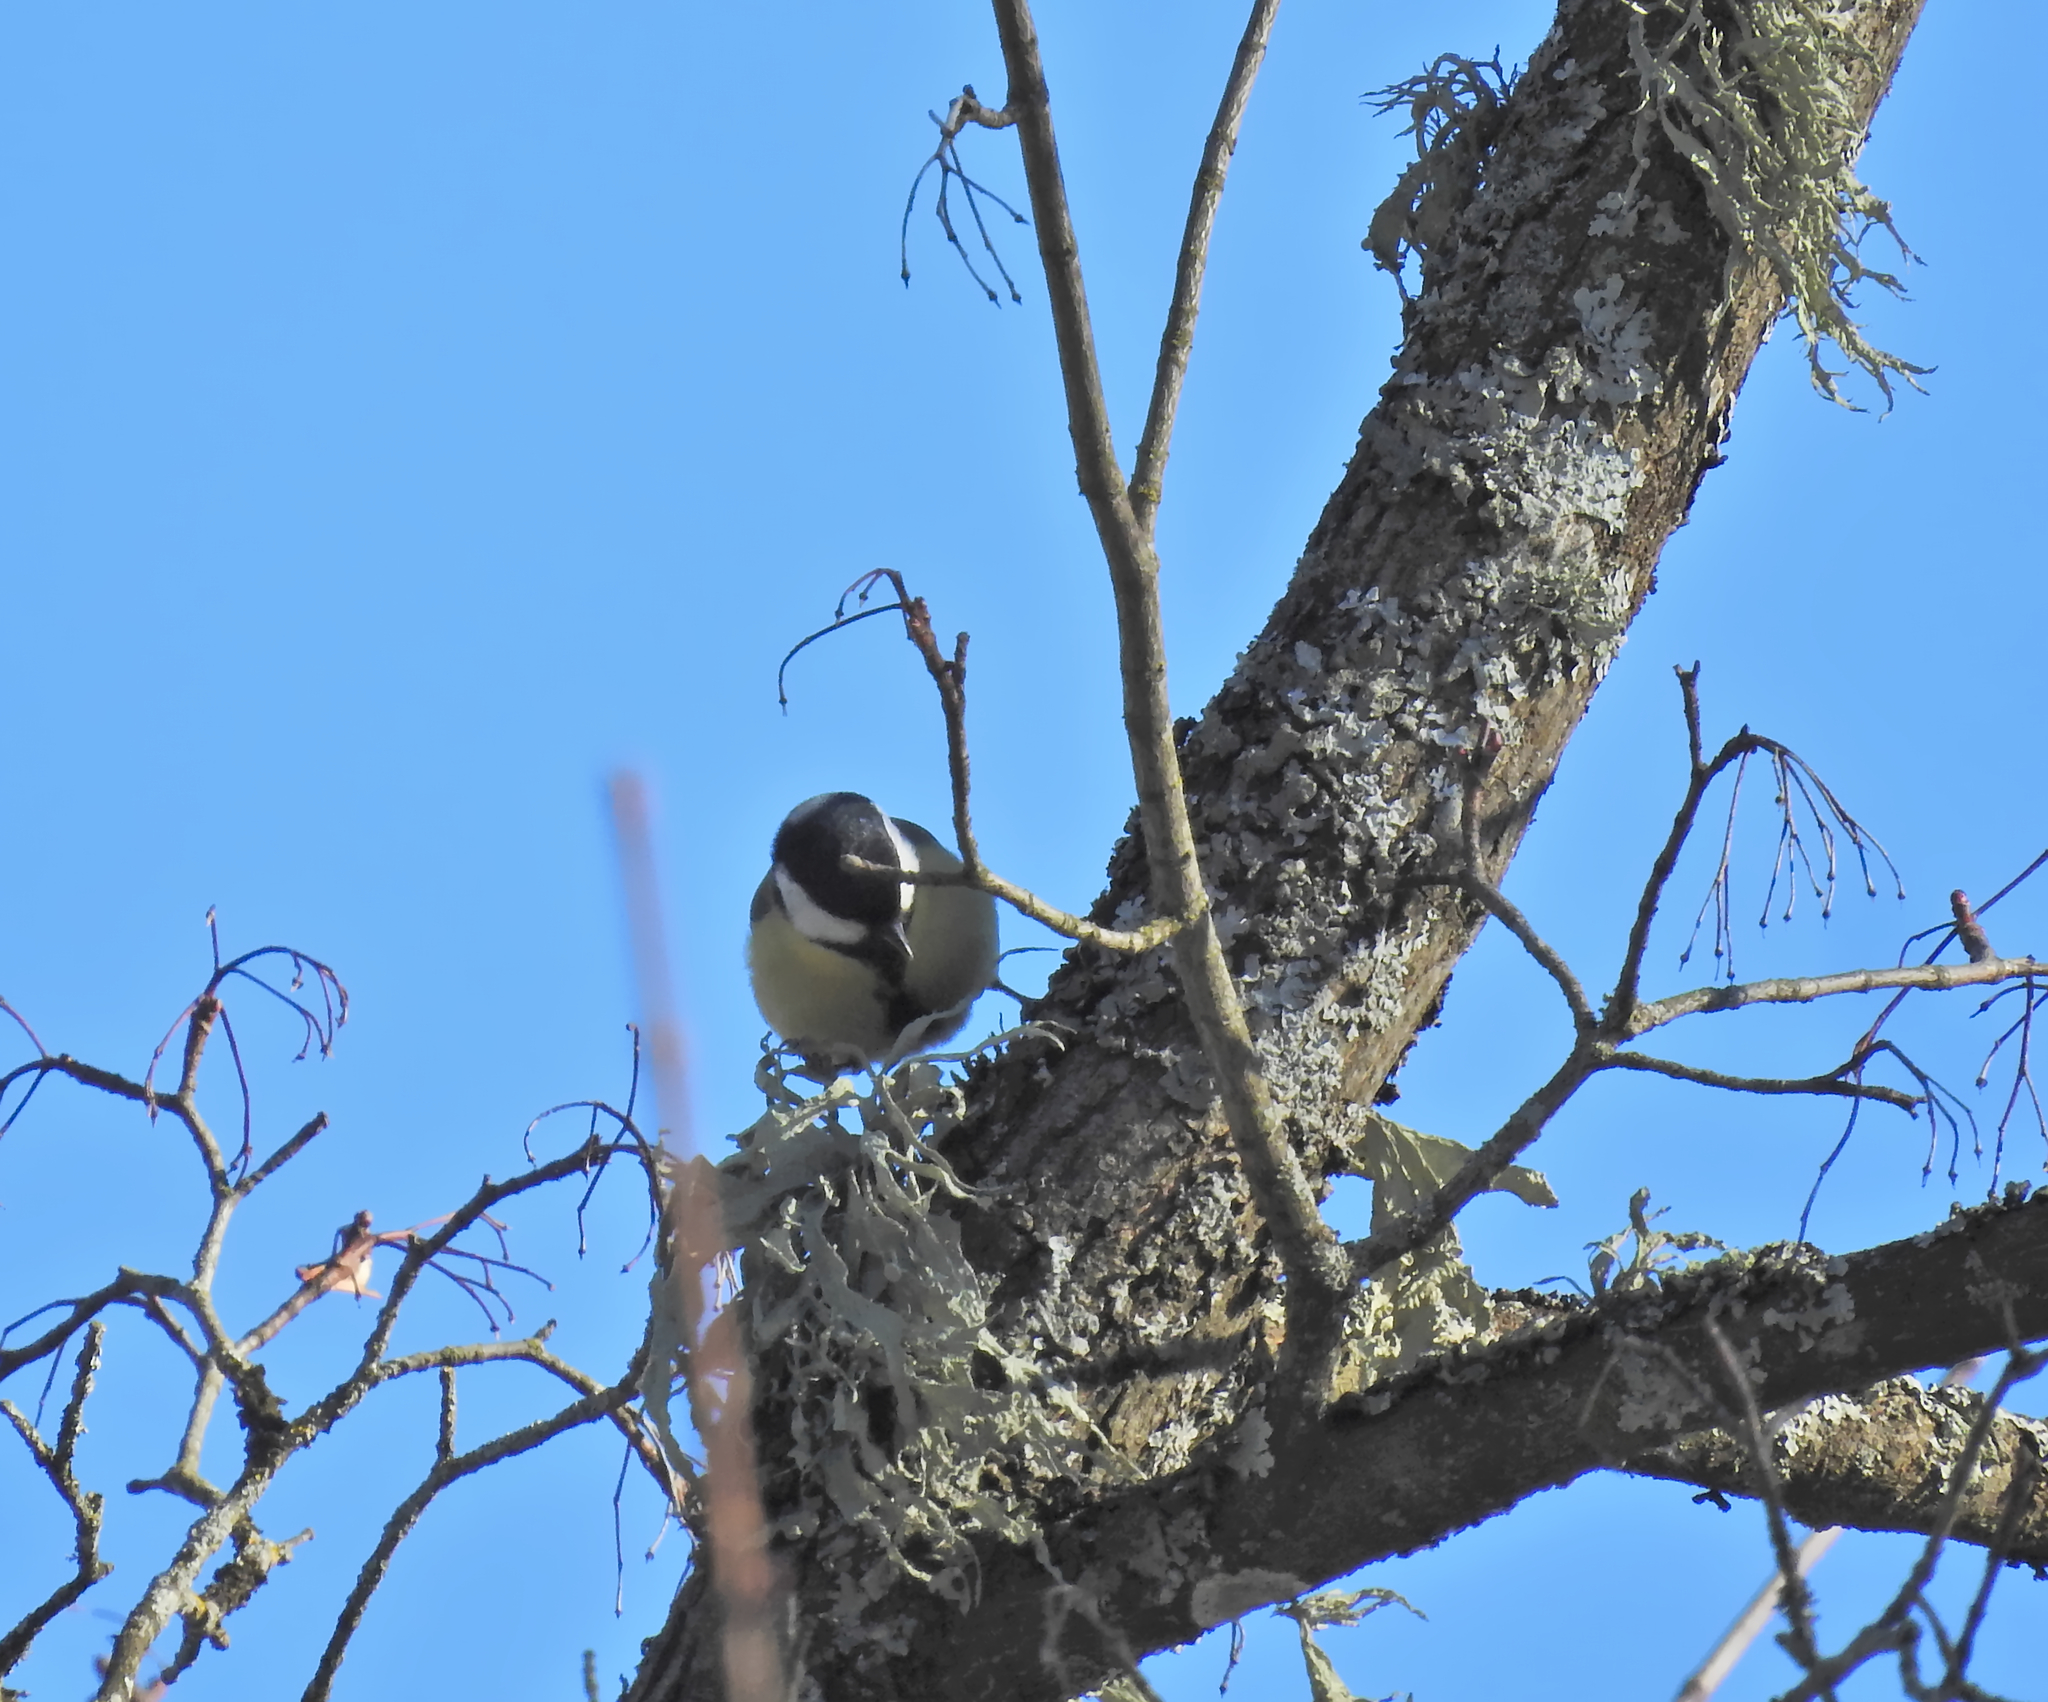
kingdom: Animalia
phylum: Chordata
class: Aves
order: Passeriformes
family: Paridae
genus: Parus
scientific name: Parus major
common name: Great tit
